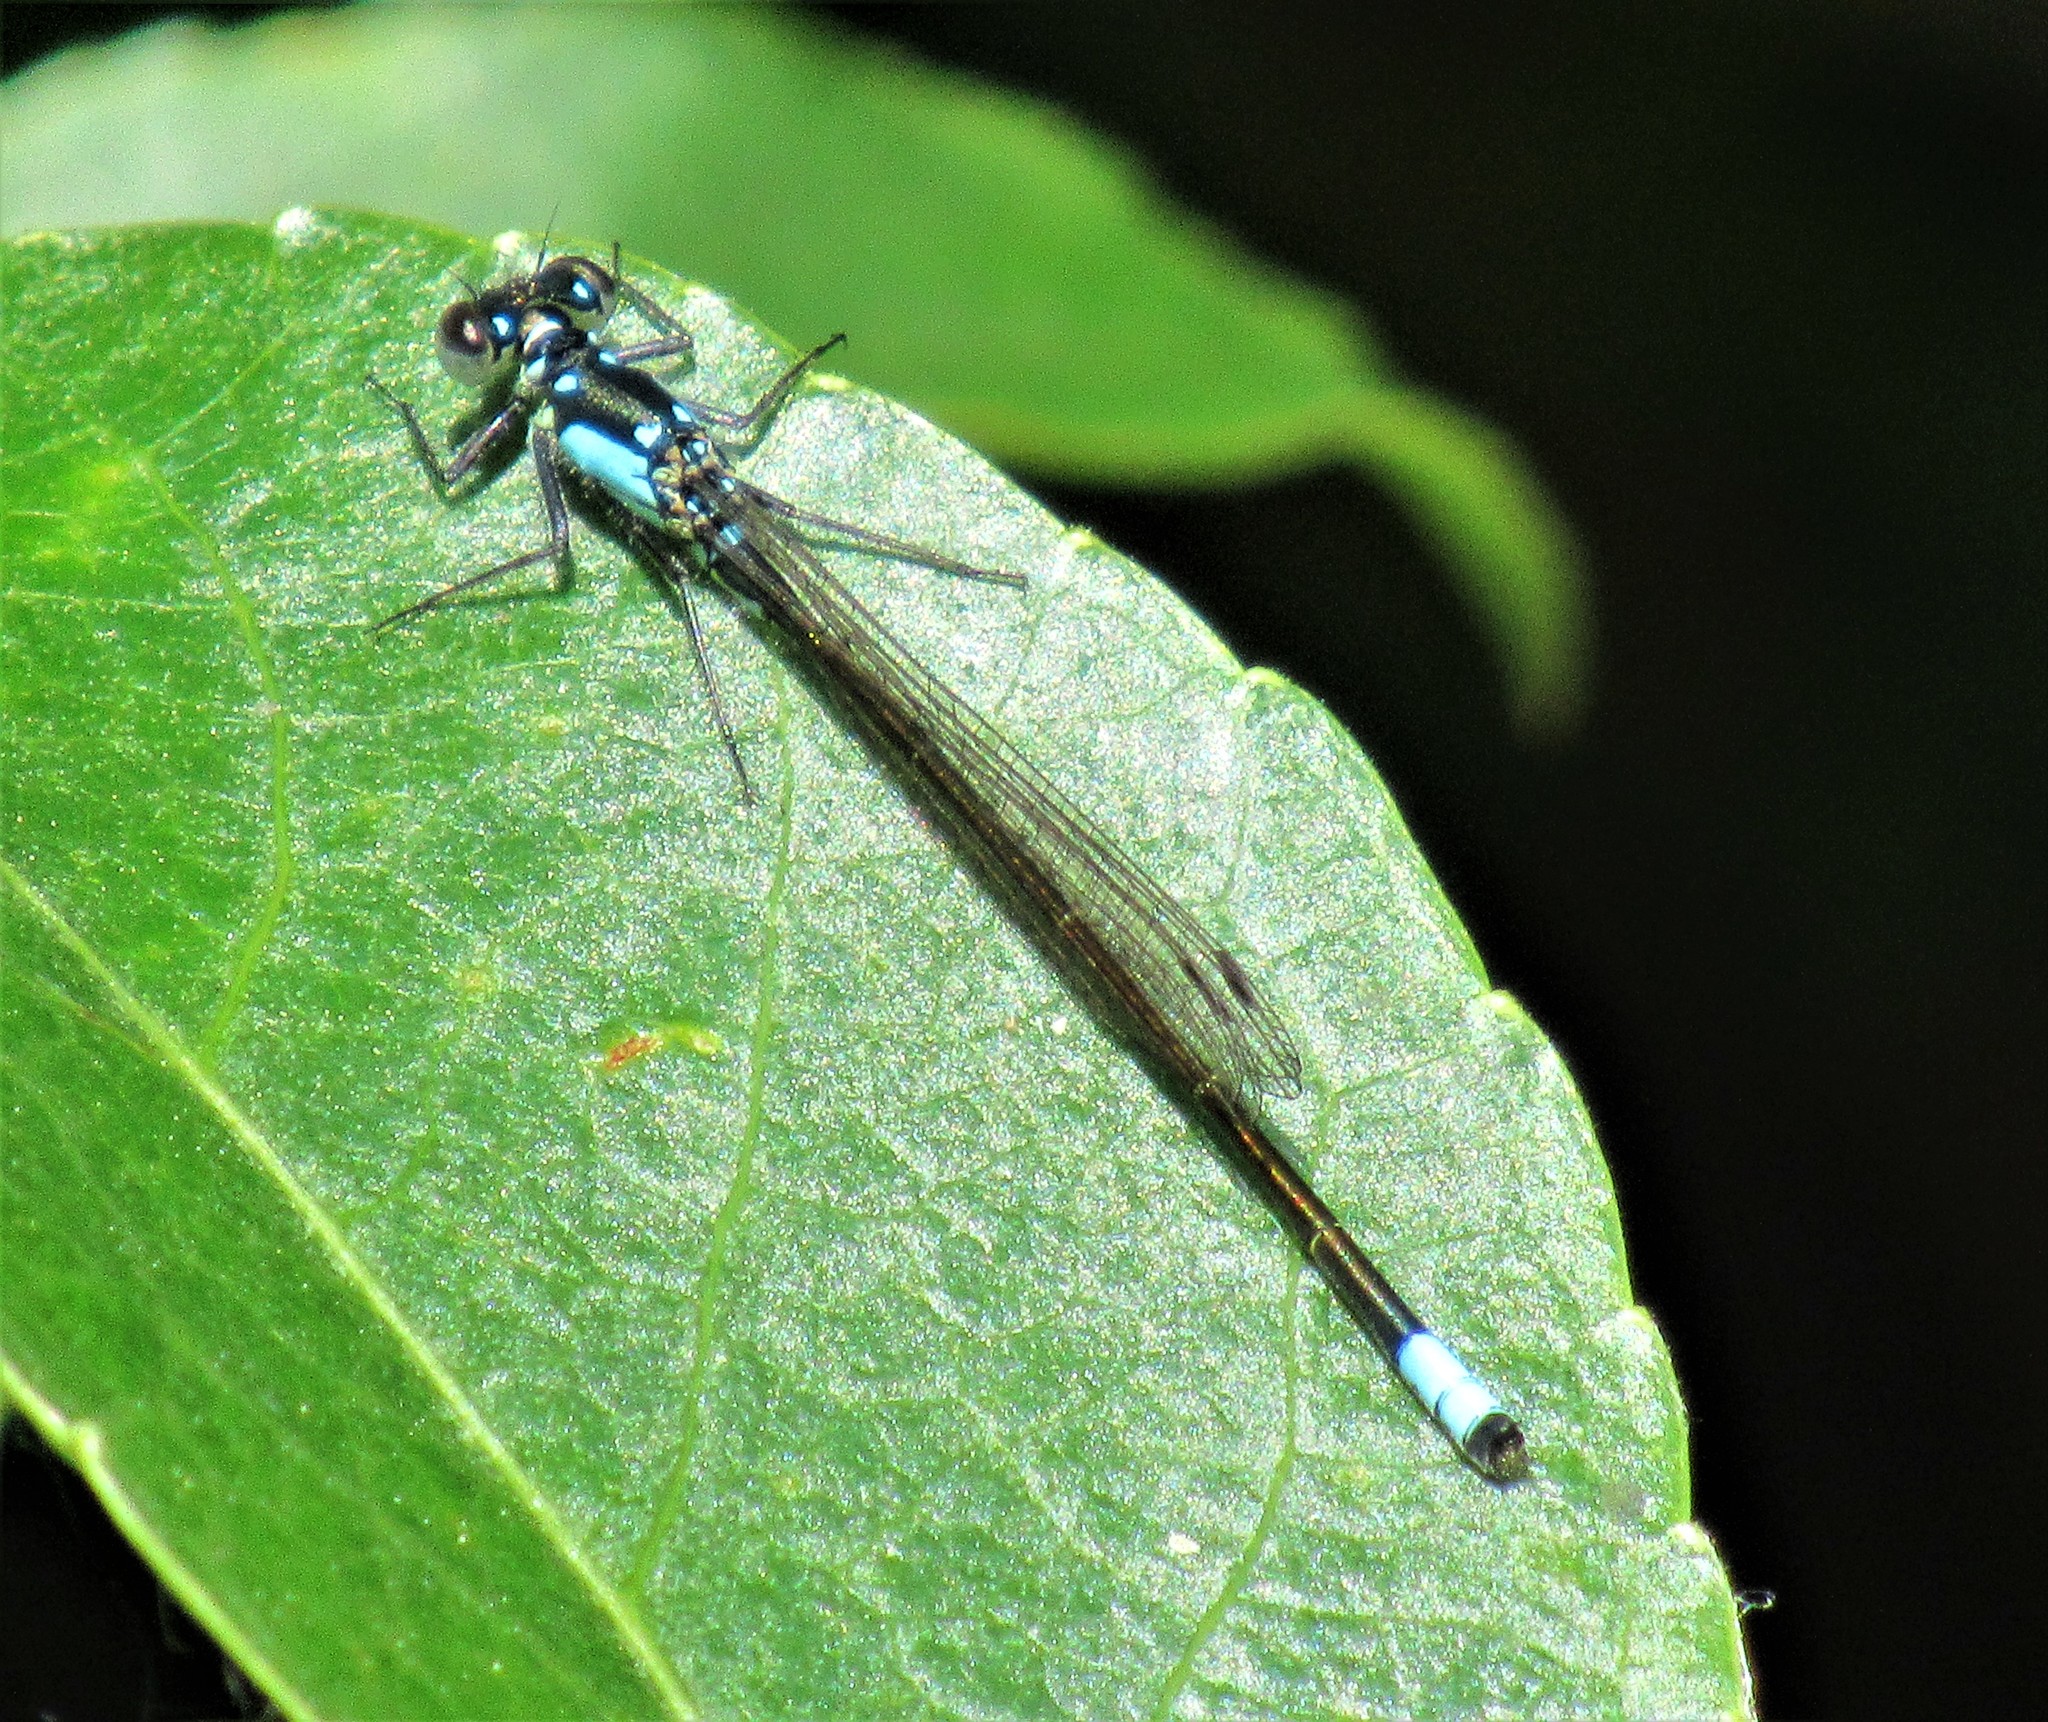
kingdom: Animalia
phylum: Arthropoda
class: Insecta
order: Odonata
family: Coenagrionidae
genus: Ischnura
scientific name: Ischnura cervula
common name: Pacific forktail
